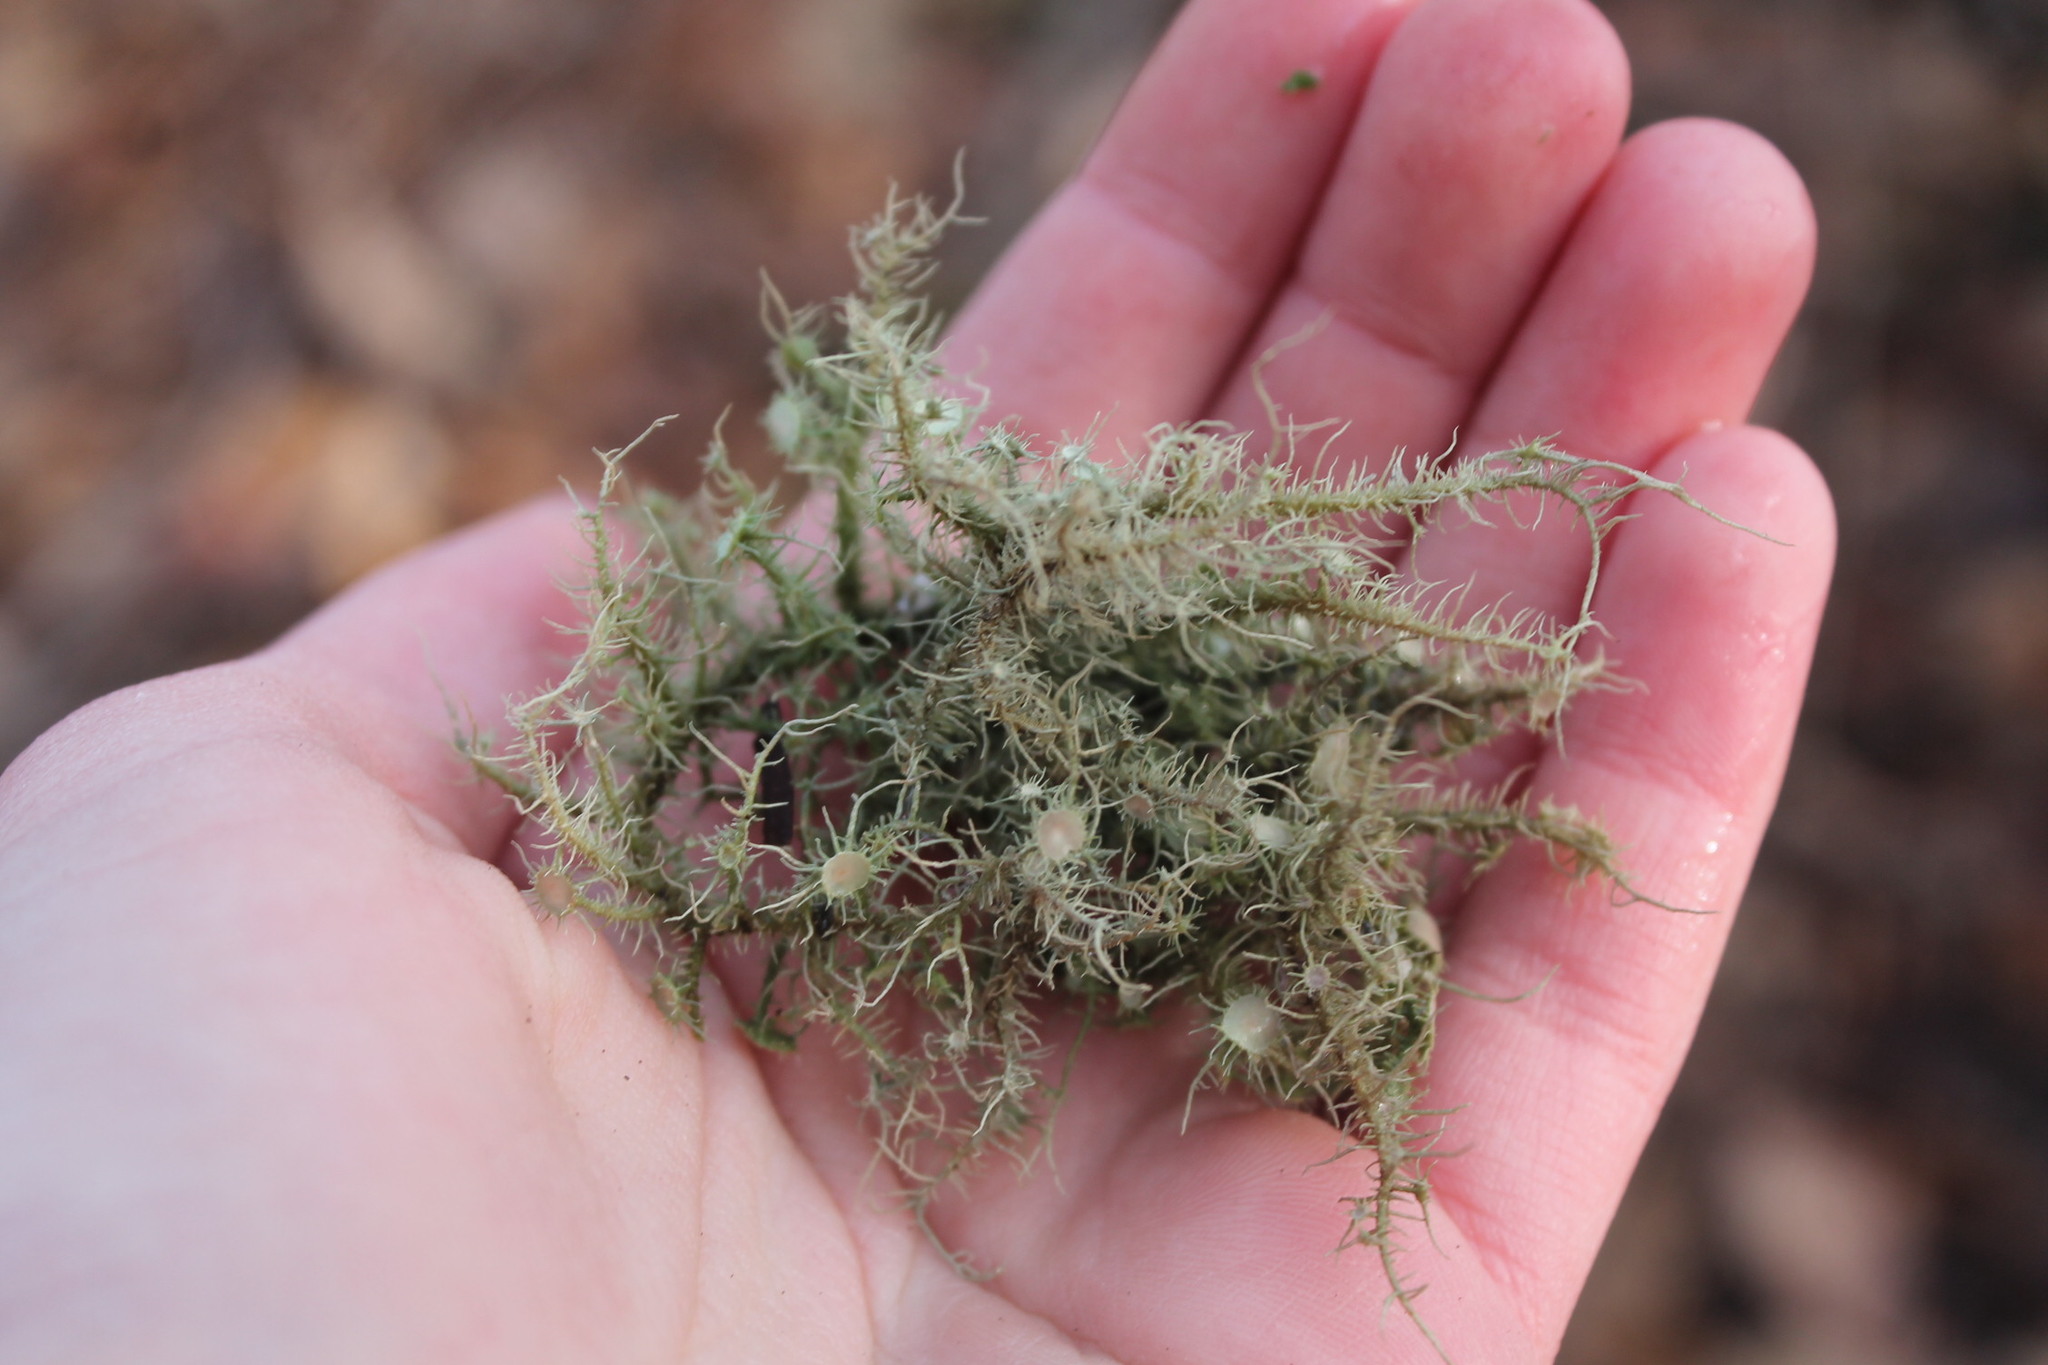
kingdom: Fungi
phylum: Ascomycota
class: Lecanoromycetes
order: Lecanorales
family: Parmeliaceae
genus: Usnea
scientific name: Usnea strigosa
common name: Bushy beard lichen
